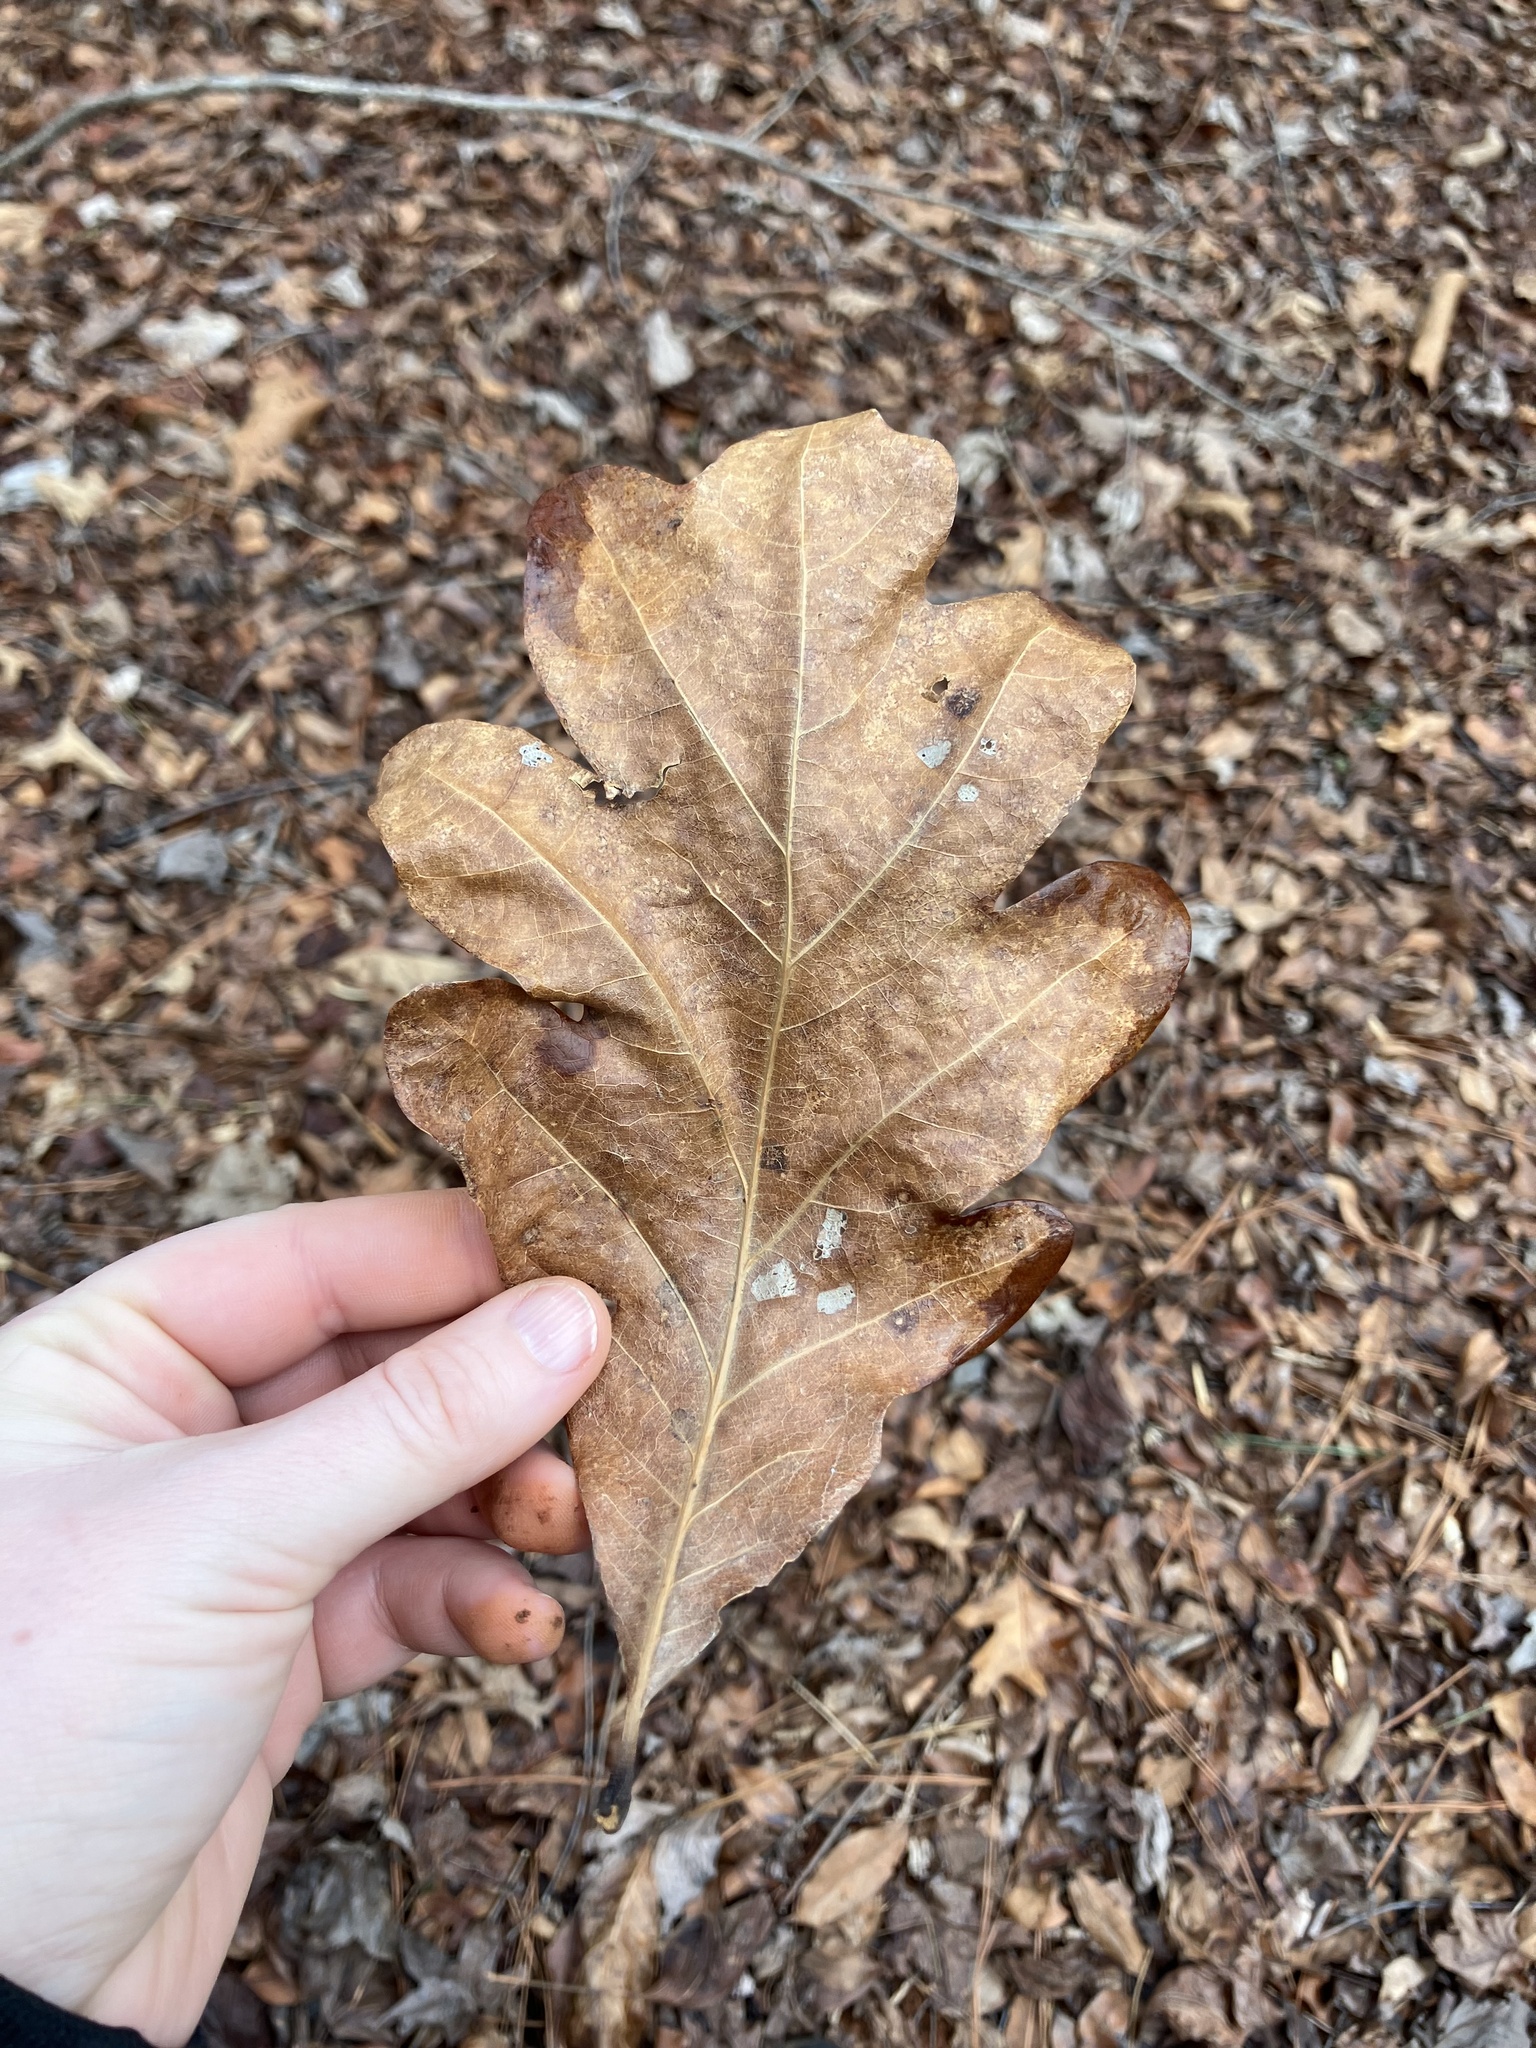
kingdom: Plantae
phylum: Tracheophyta
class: Magnoliopsida
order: Fagales
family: Fagaceae
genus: Quercus
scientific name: Quercus alba
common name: White oak
